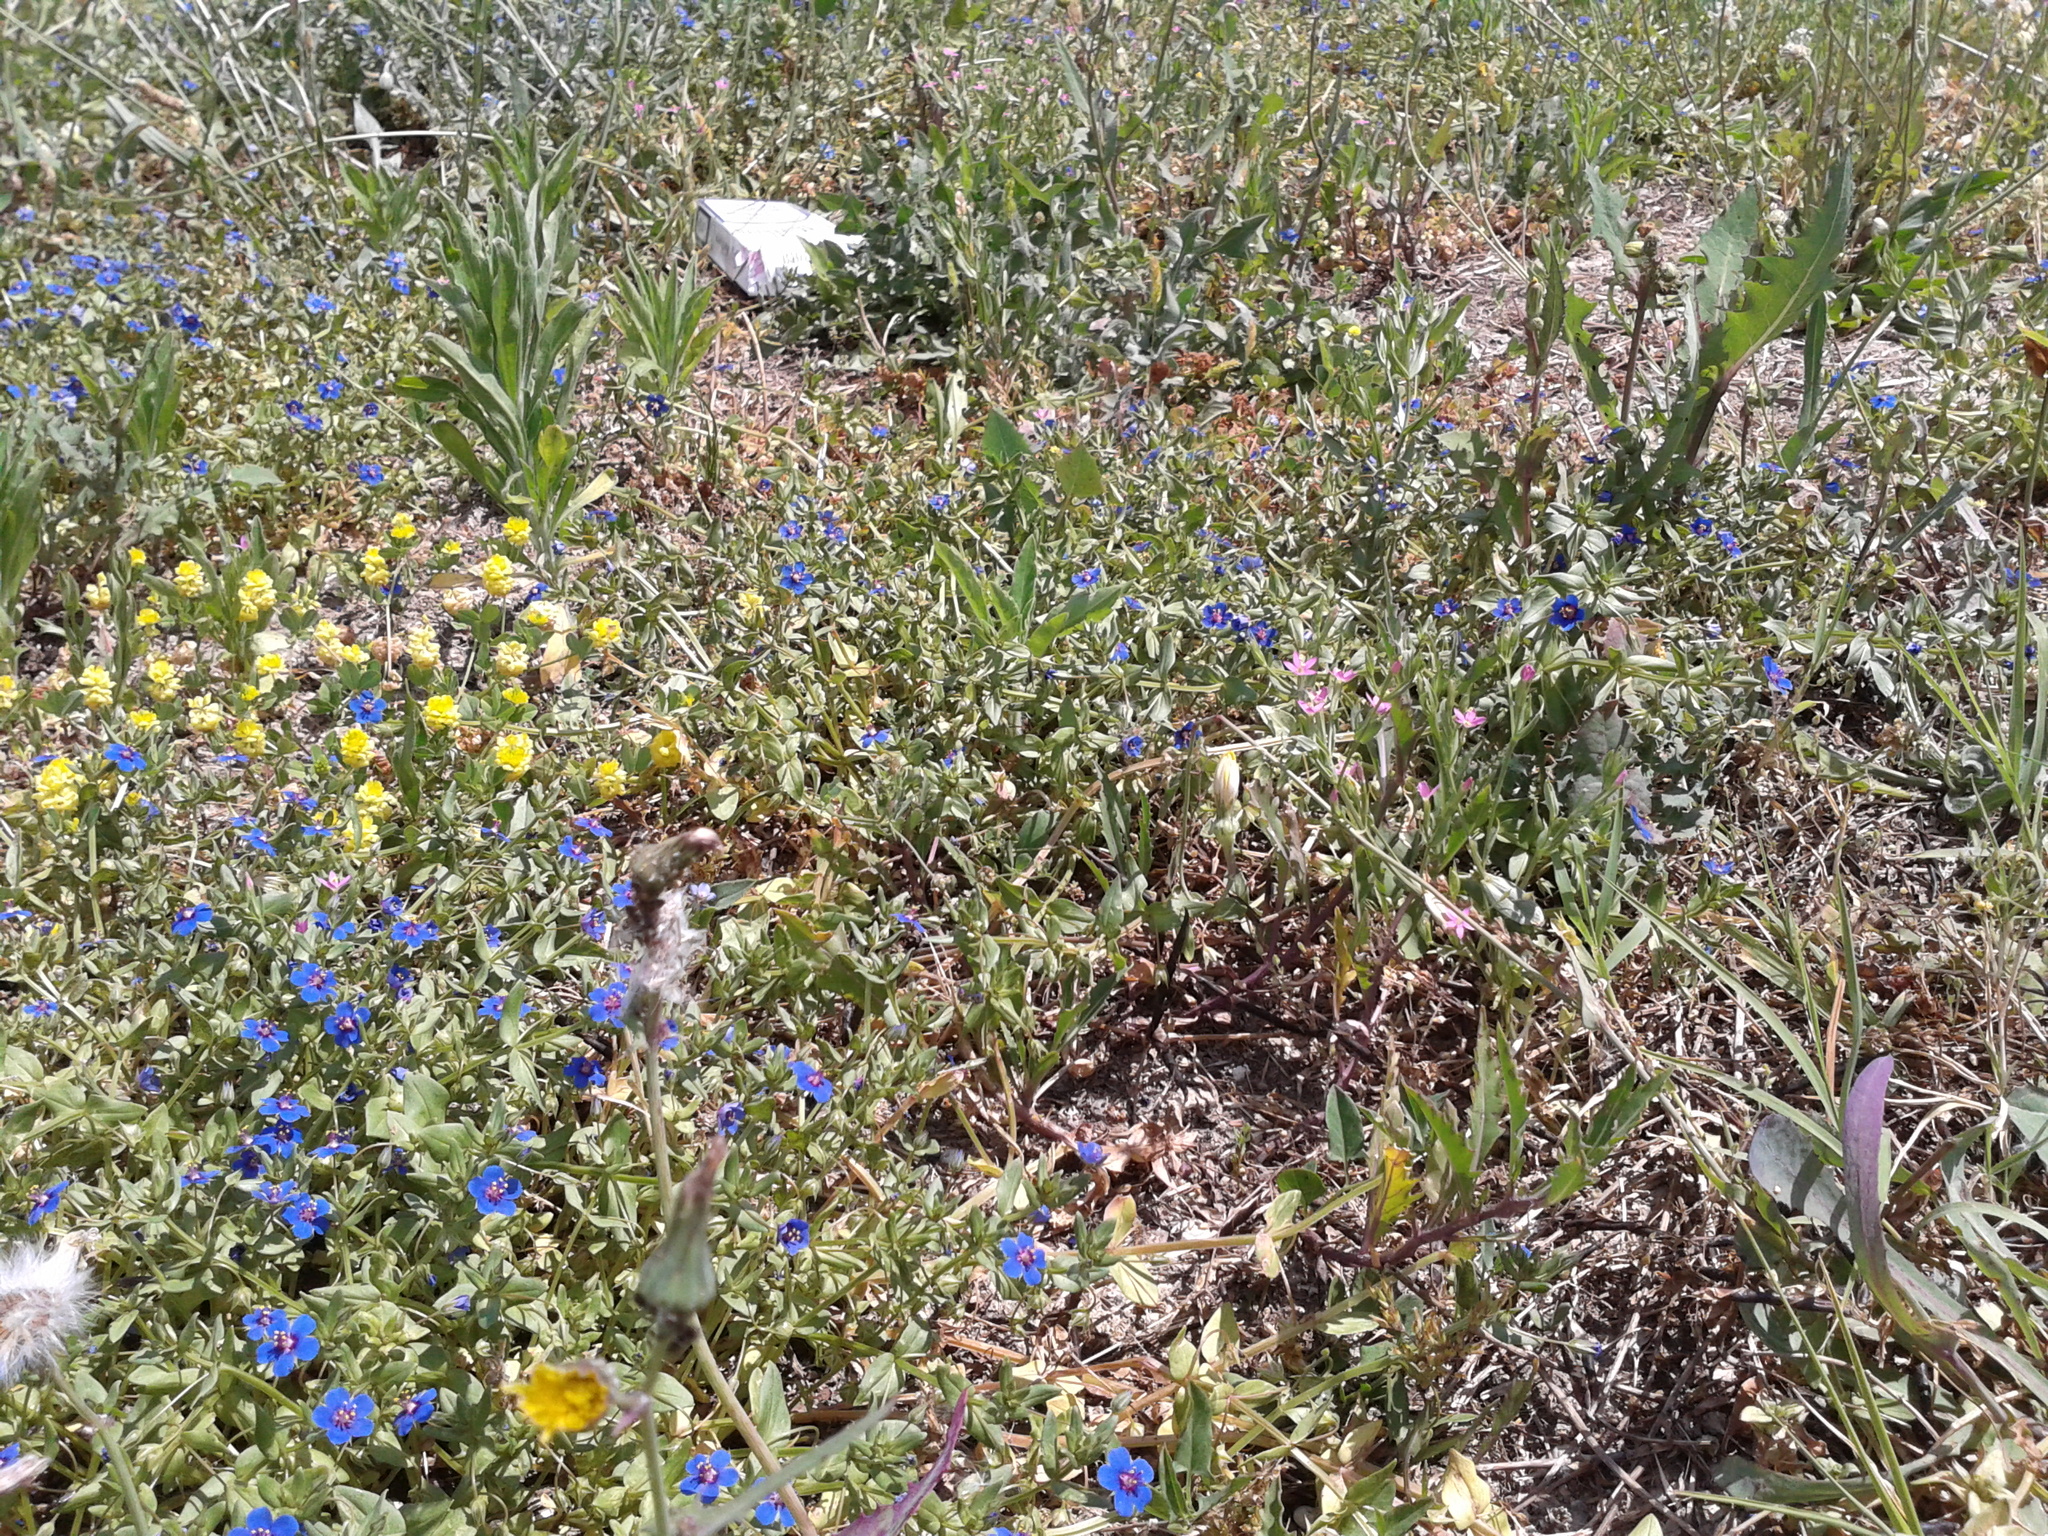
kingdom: Plantae
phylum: Tracheophyta
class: Magnoliopsida
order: Ericales
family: Primulaceae
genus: Lysimachia
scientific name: Lysimachia foemina
